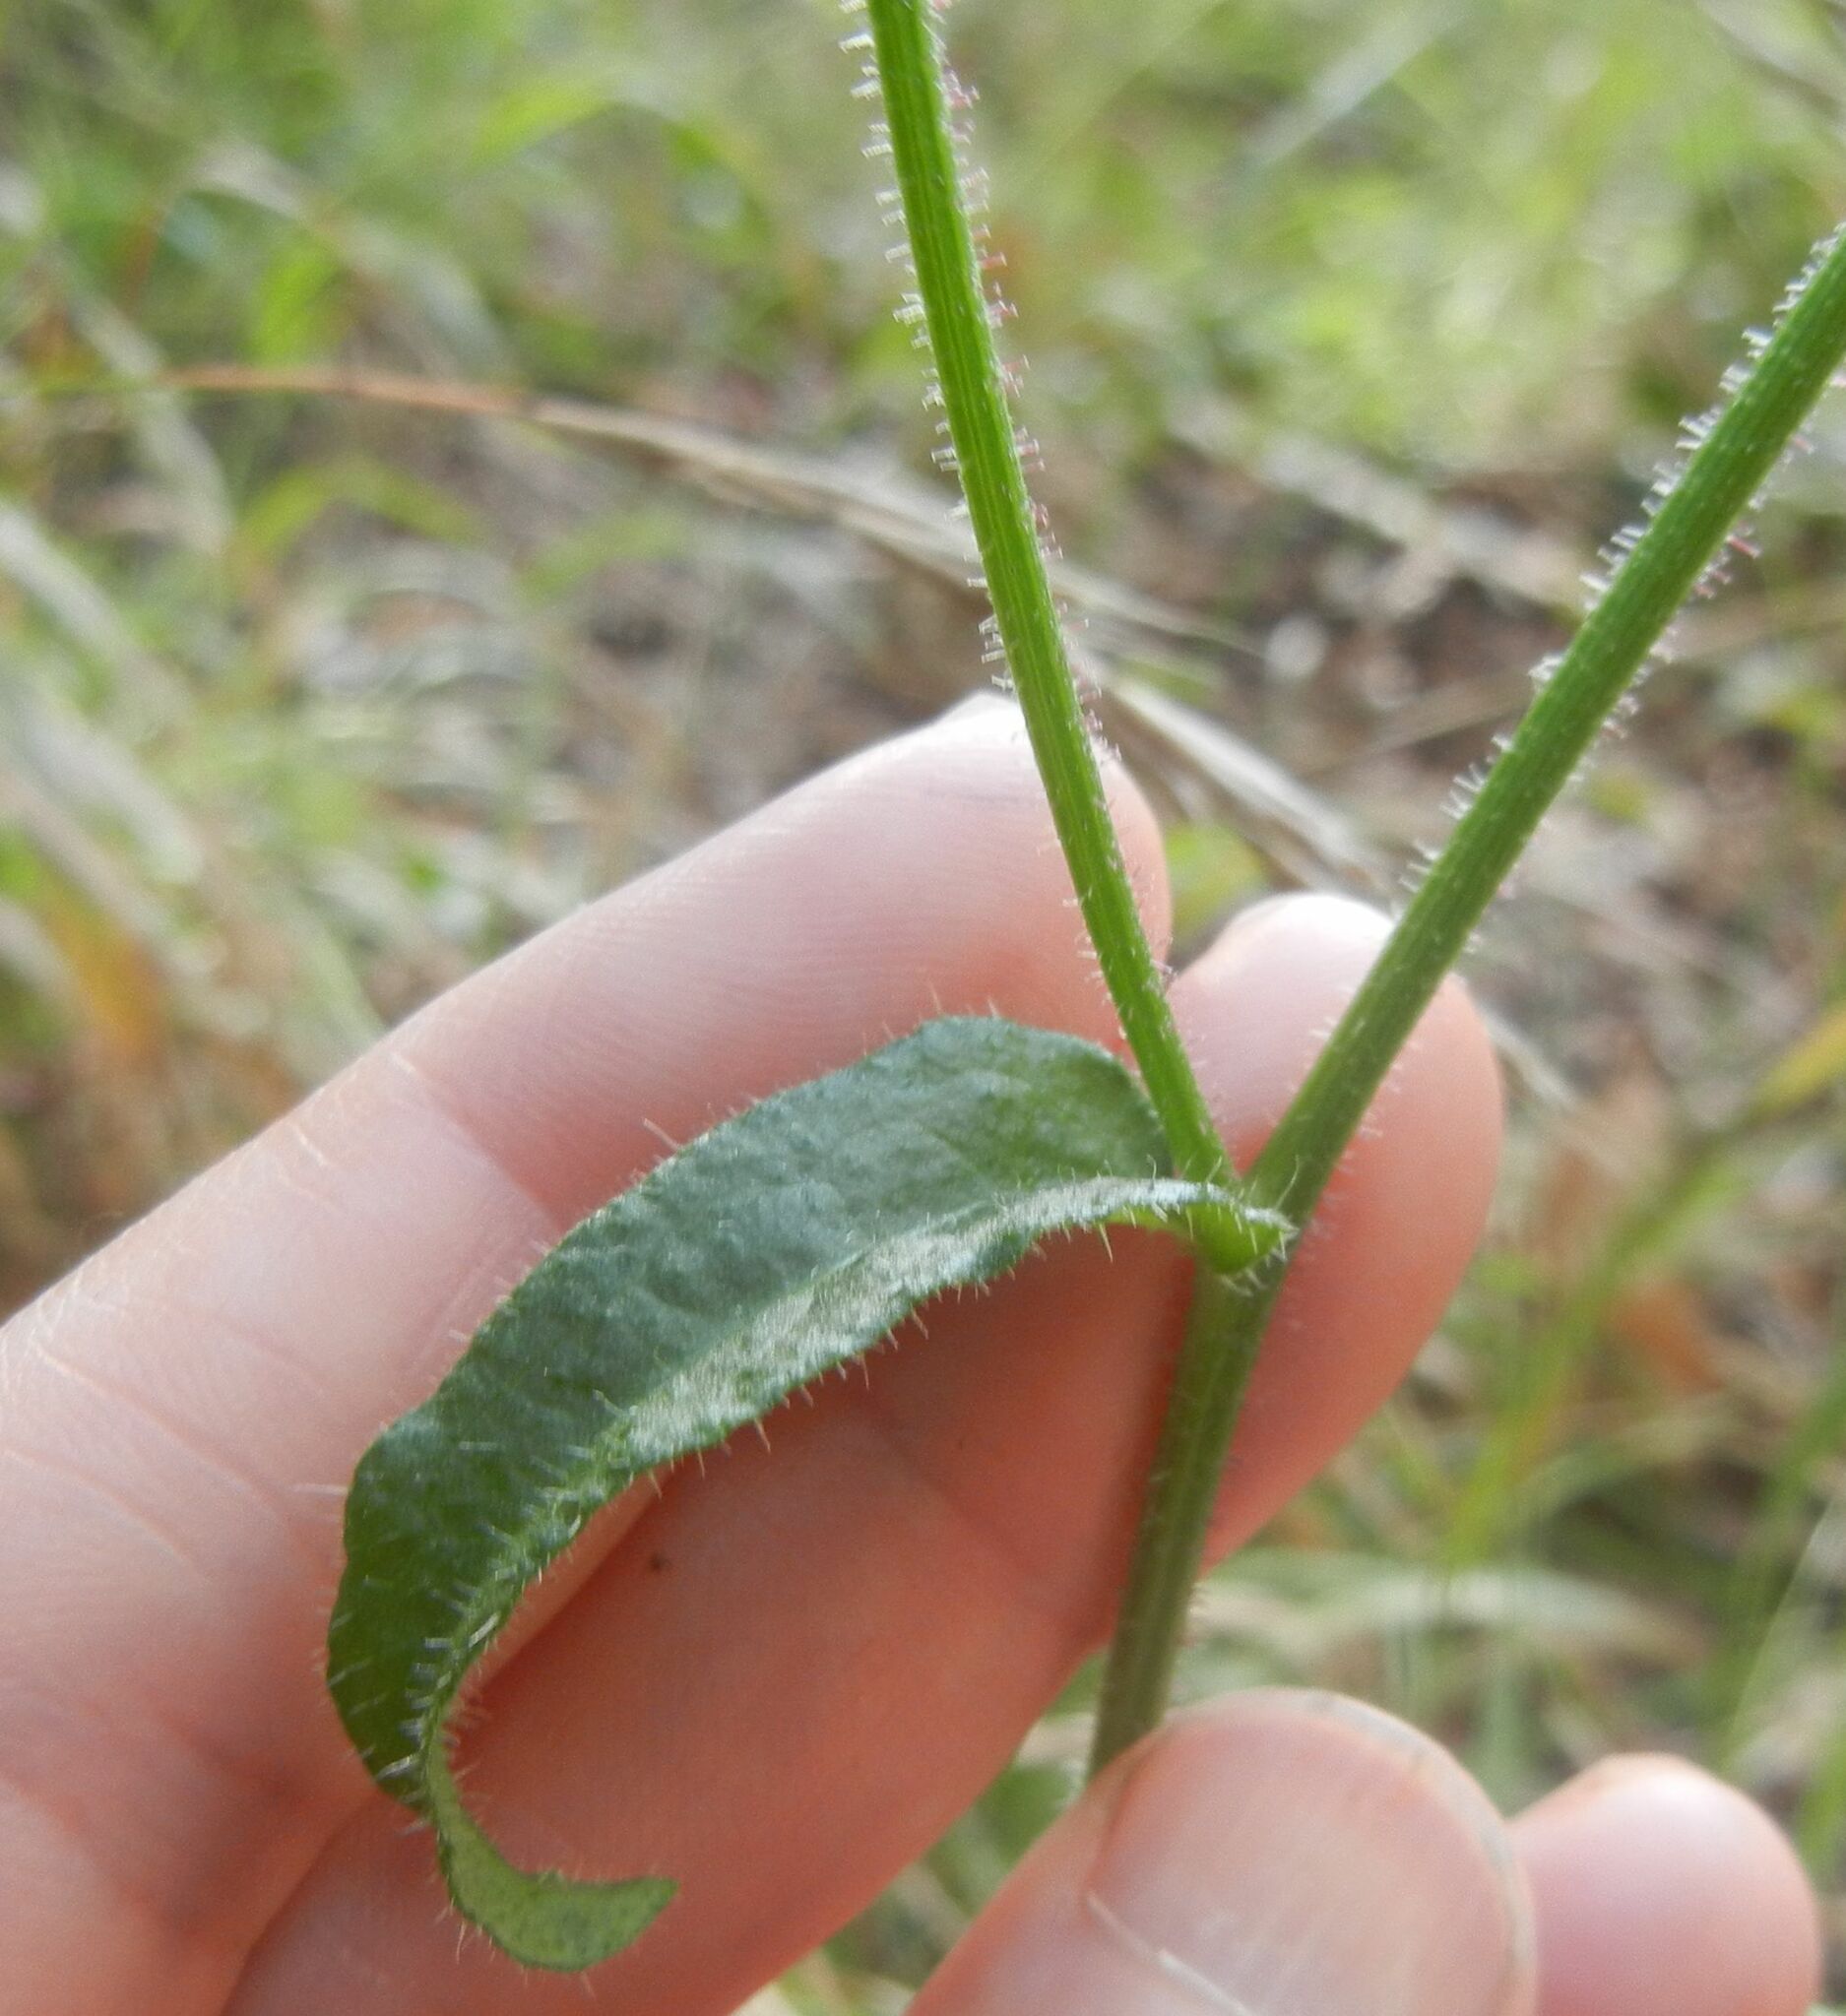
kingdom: Plantae
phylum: Tracheophyta
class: Magnoliopsida
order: Asterales
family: Asteraceae
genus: Picris
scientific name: Picris hieracioides
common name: Hawkweed oxtongue
